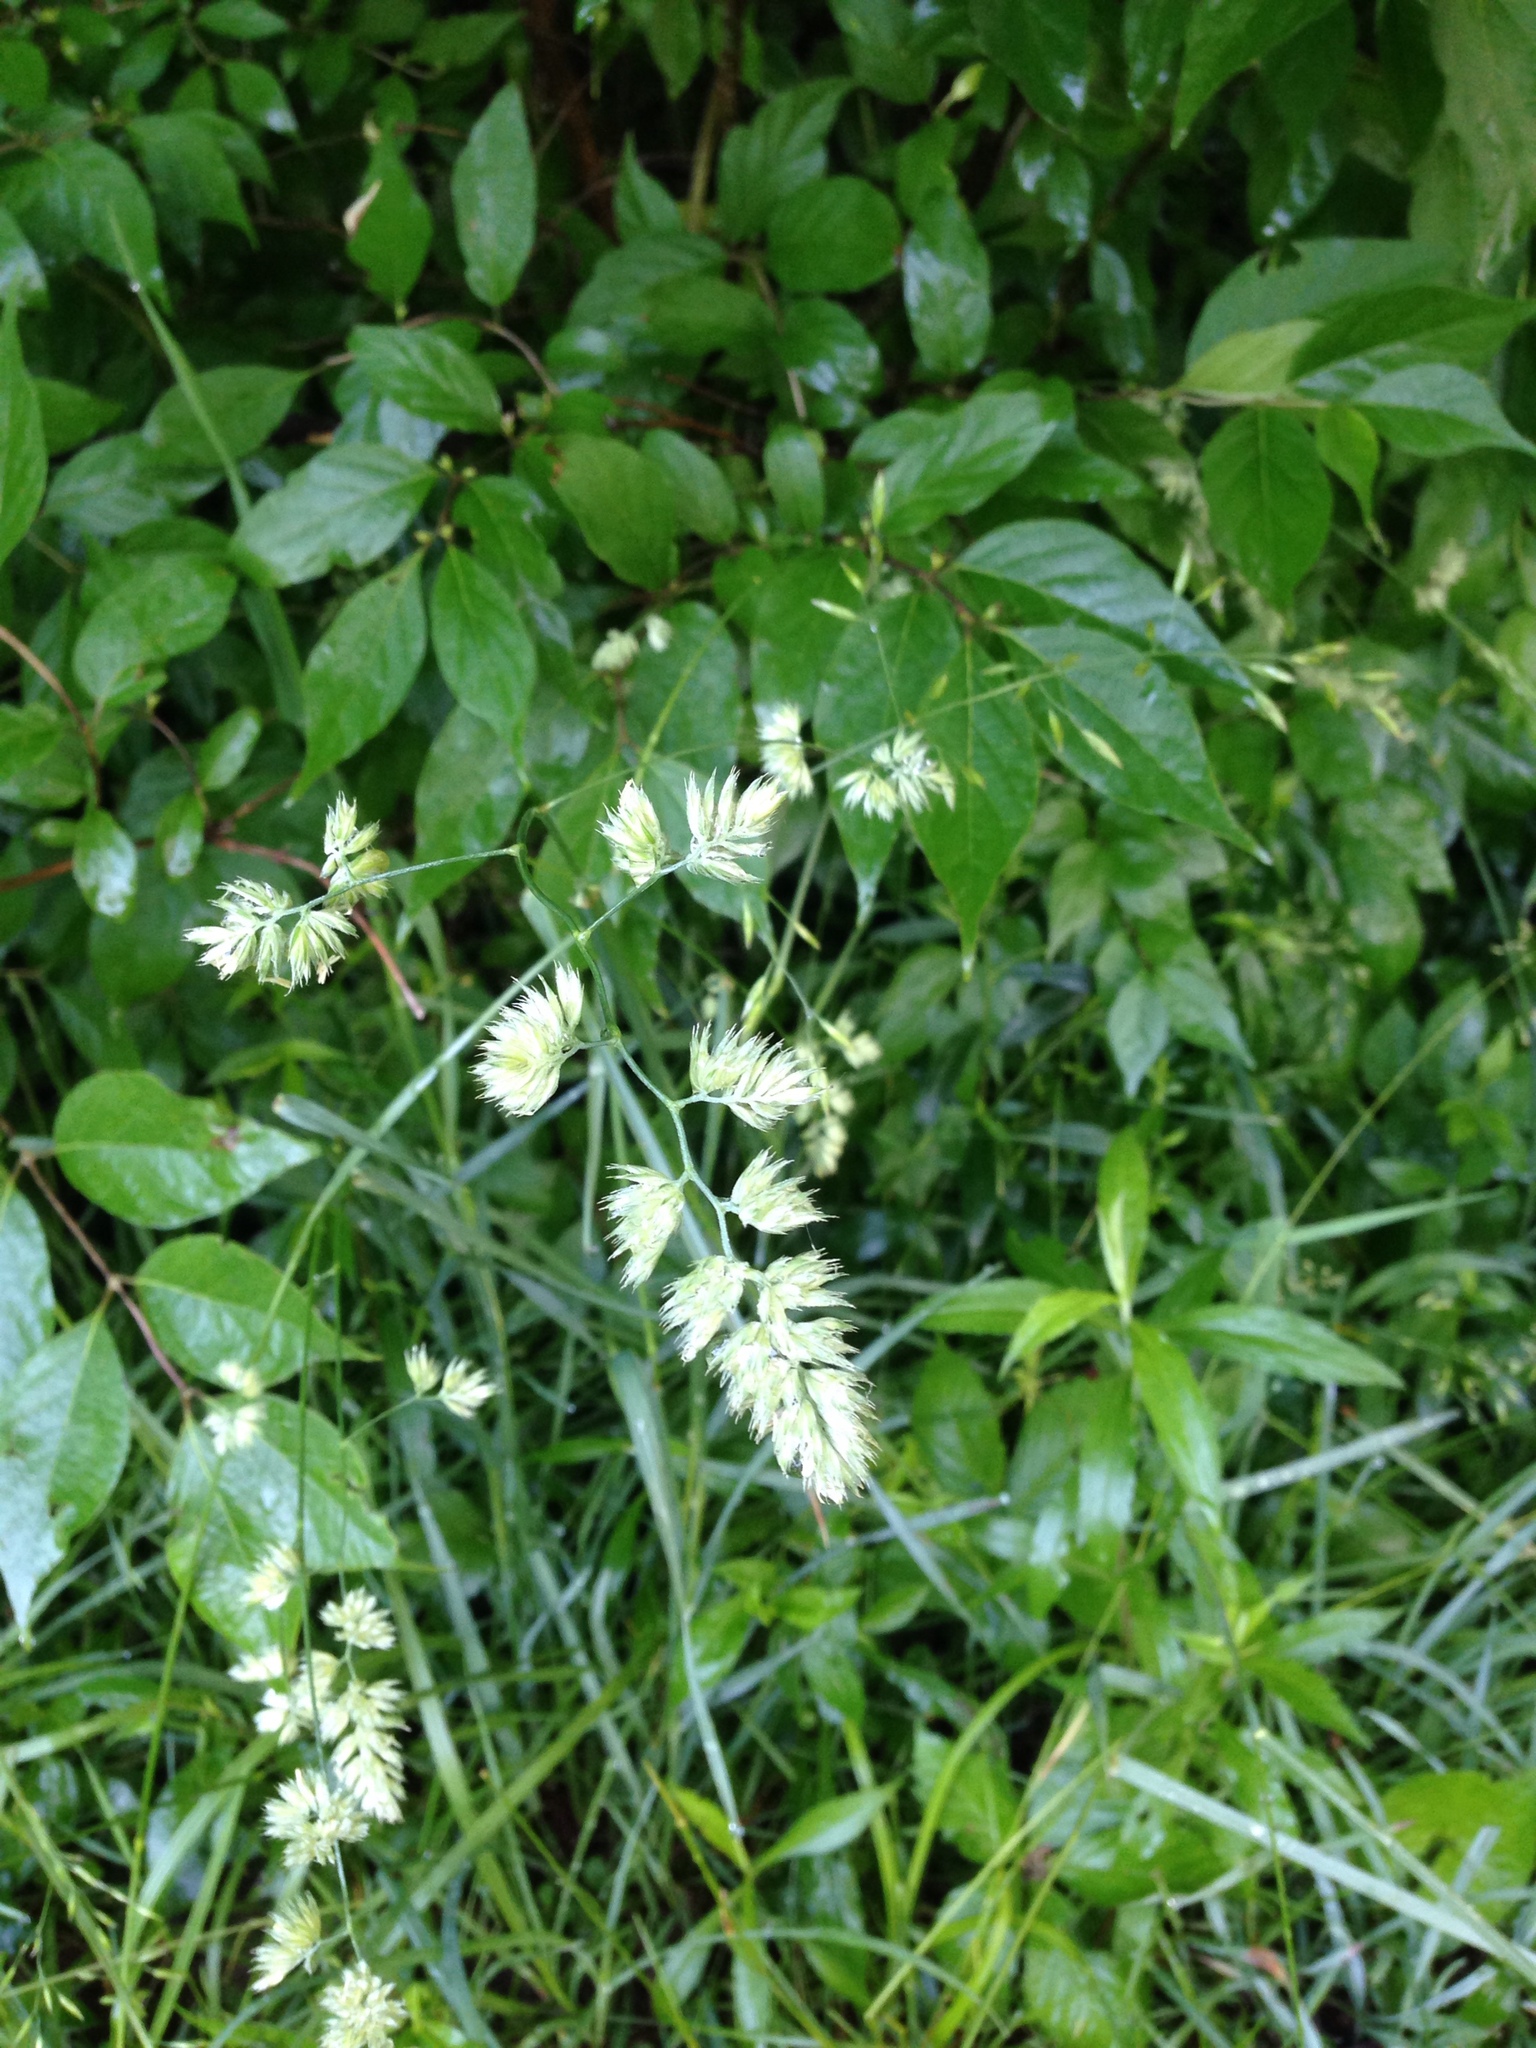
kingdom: Plantae
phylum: Tracheophyta
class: Liliopsida
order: Poales
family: Poaceae
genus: Dactylis
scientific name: Dactylis glomerata
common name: Orchardgrass
